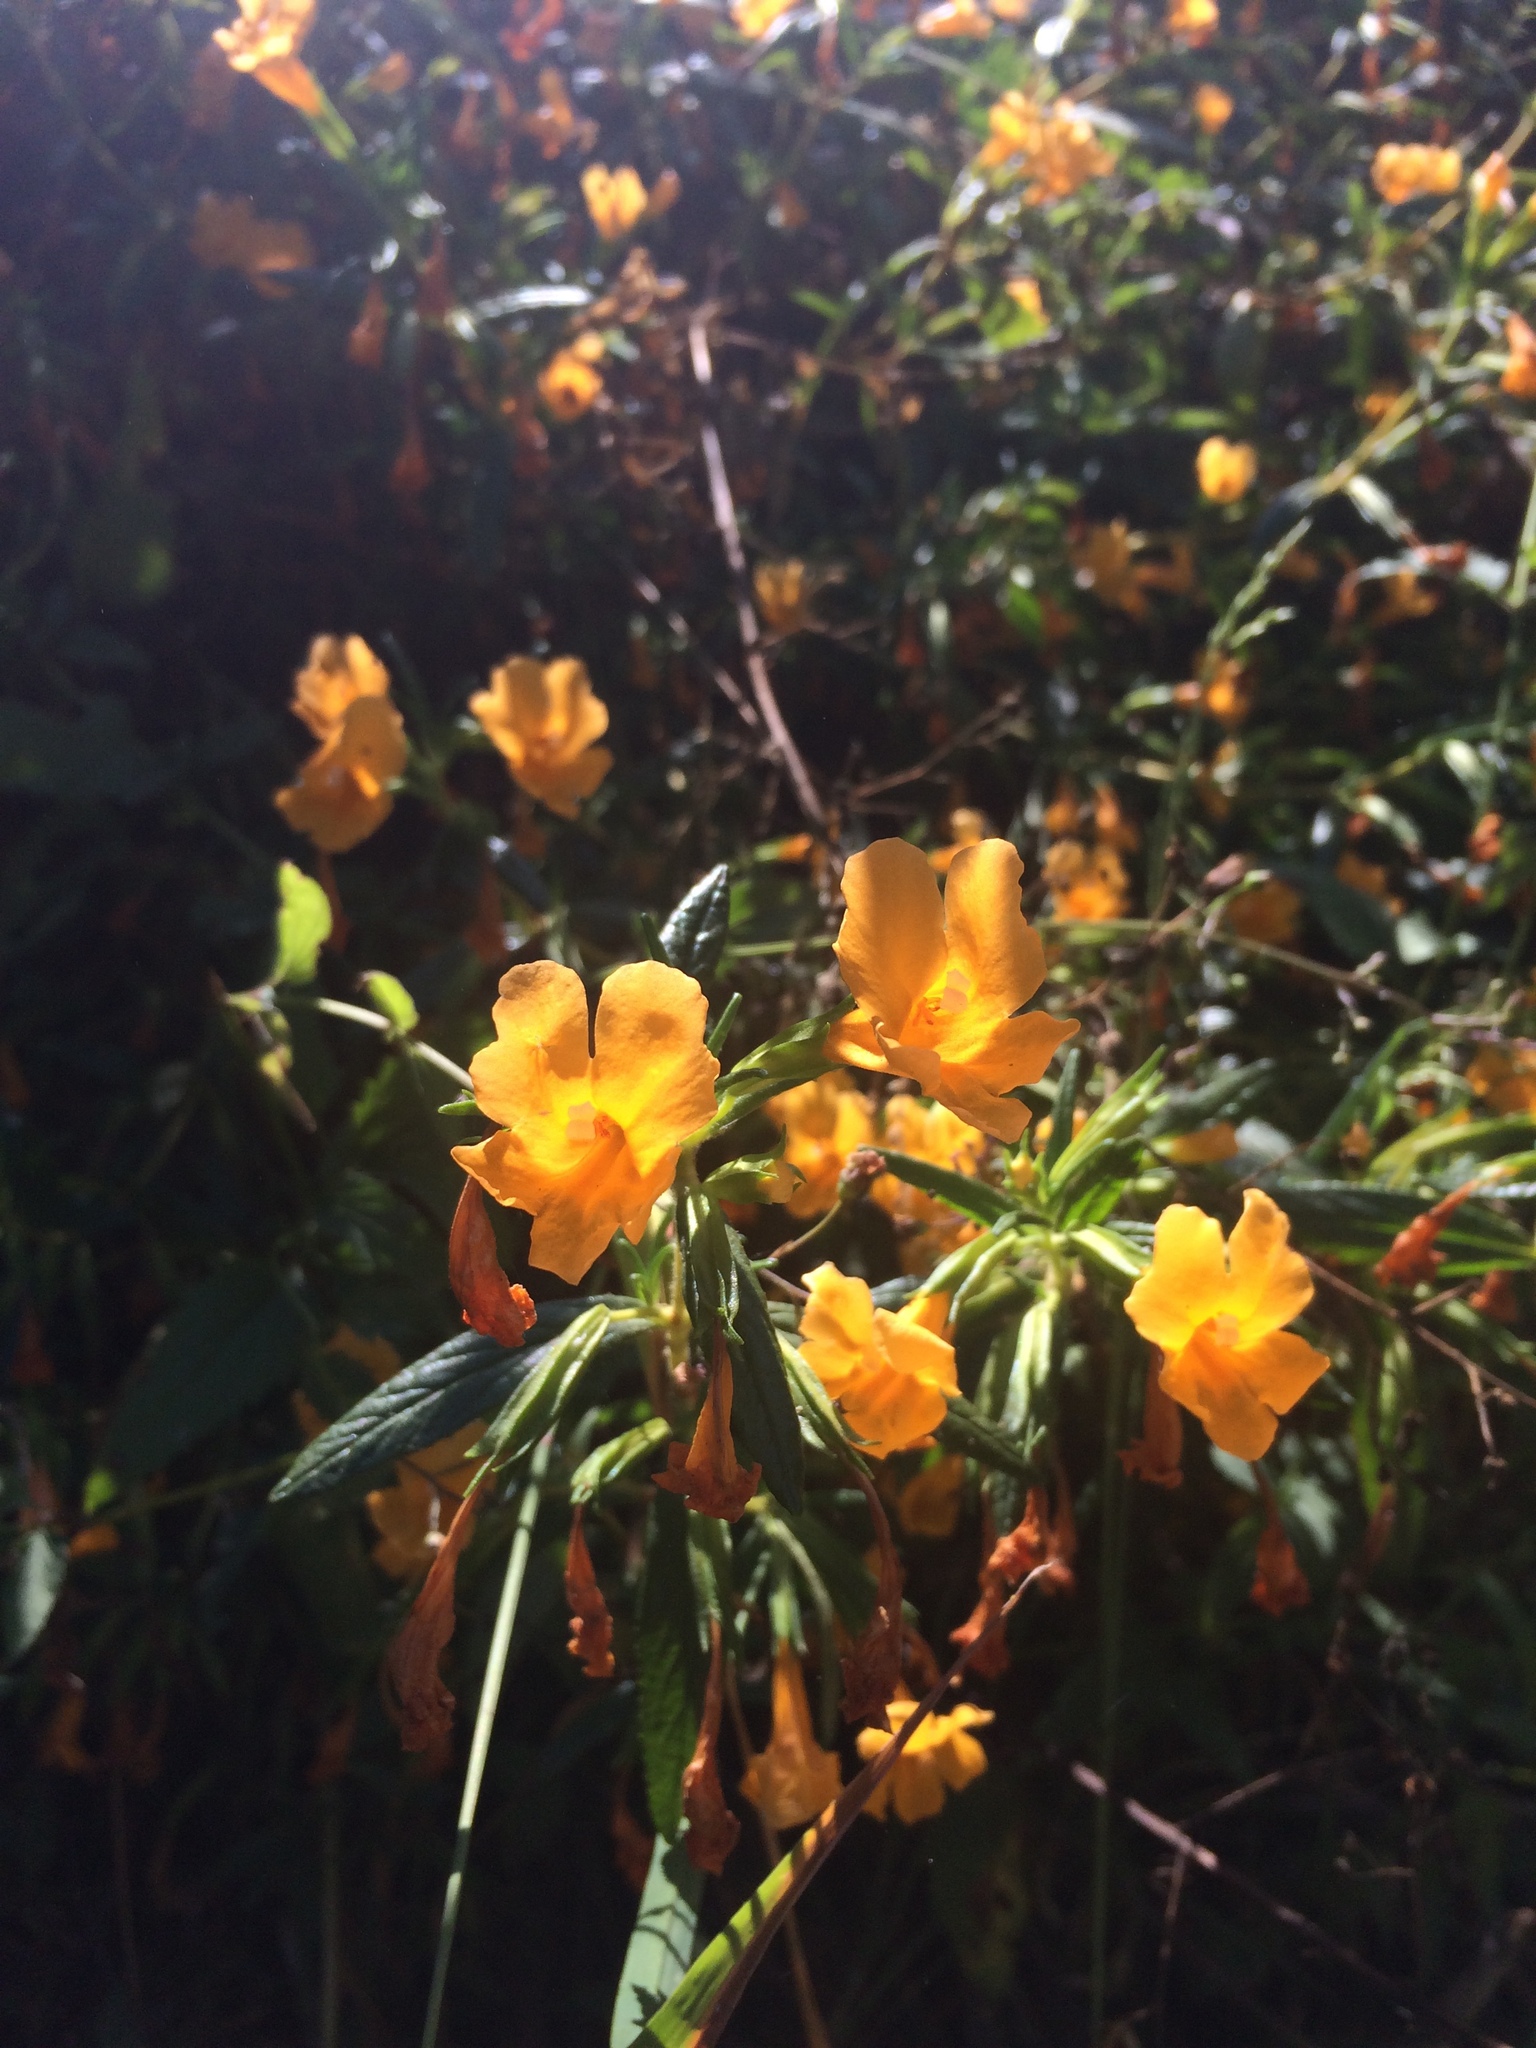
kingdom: Plantae
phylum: Tracheophyta
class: Magnoliopsida
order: Lamiales
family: Phrymaceae
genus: Diplacus
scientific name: Diplacus aurantiacus
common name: Bush monkey-flower
